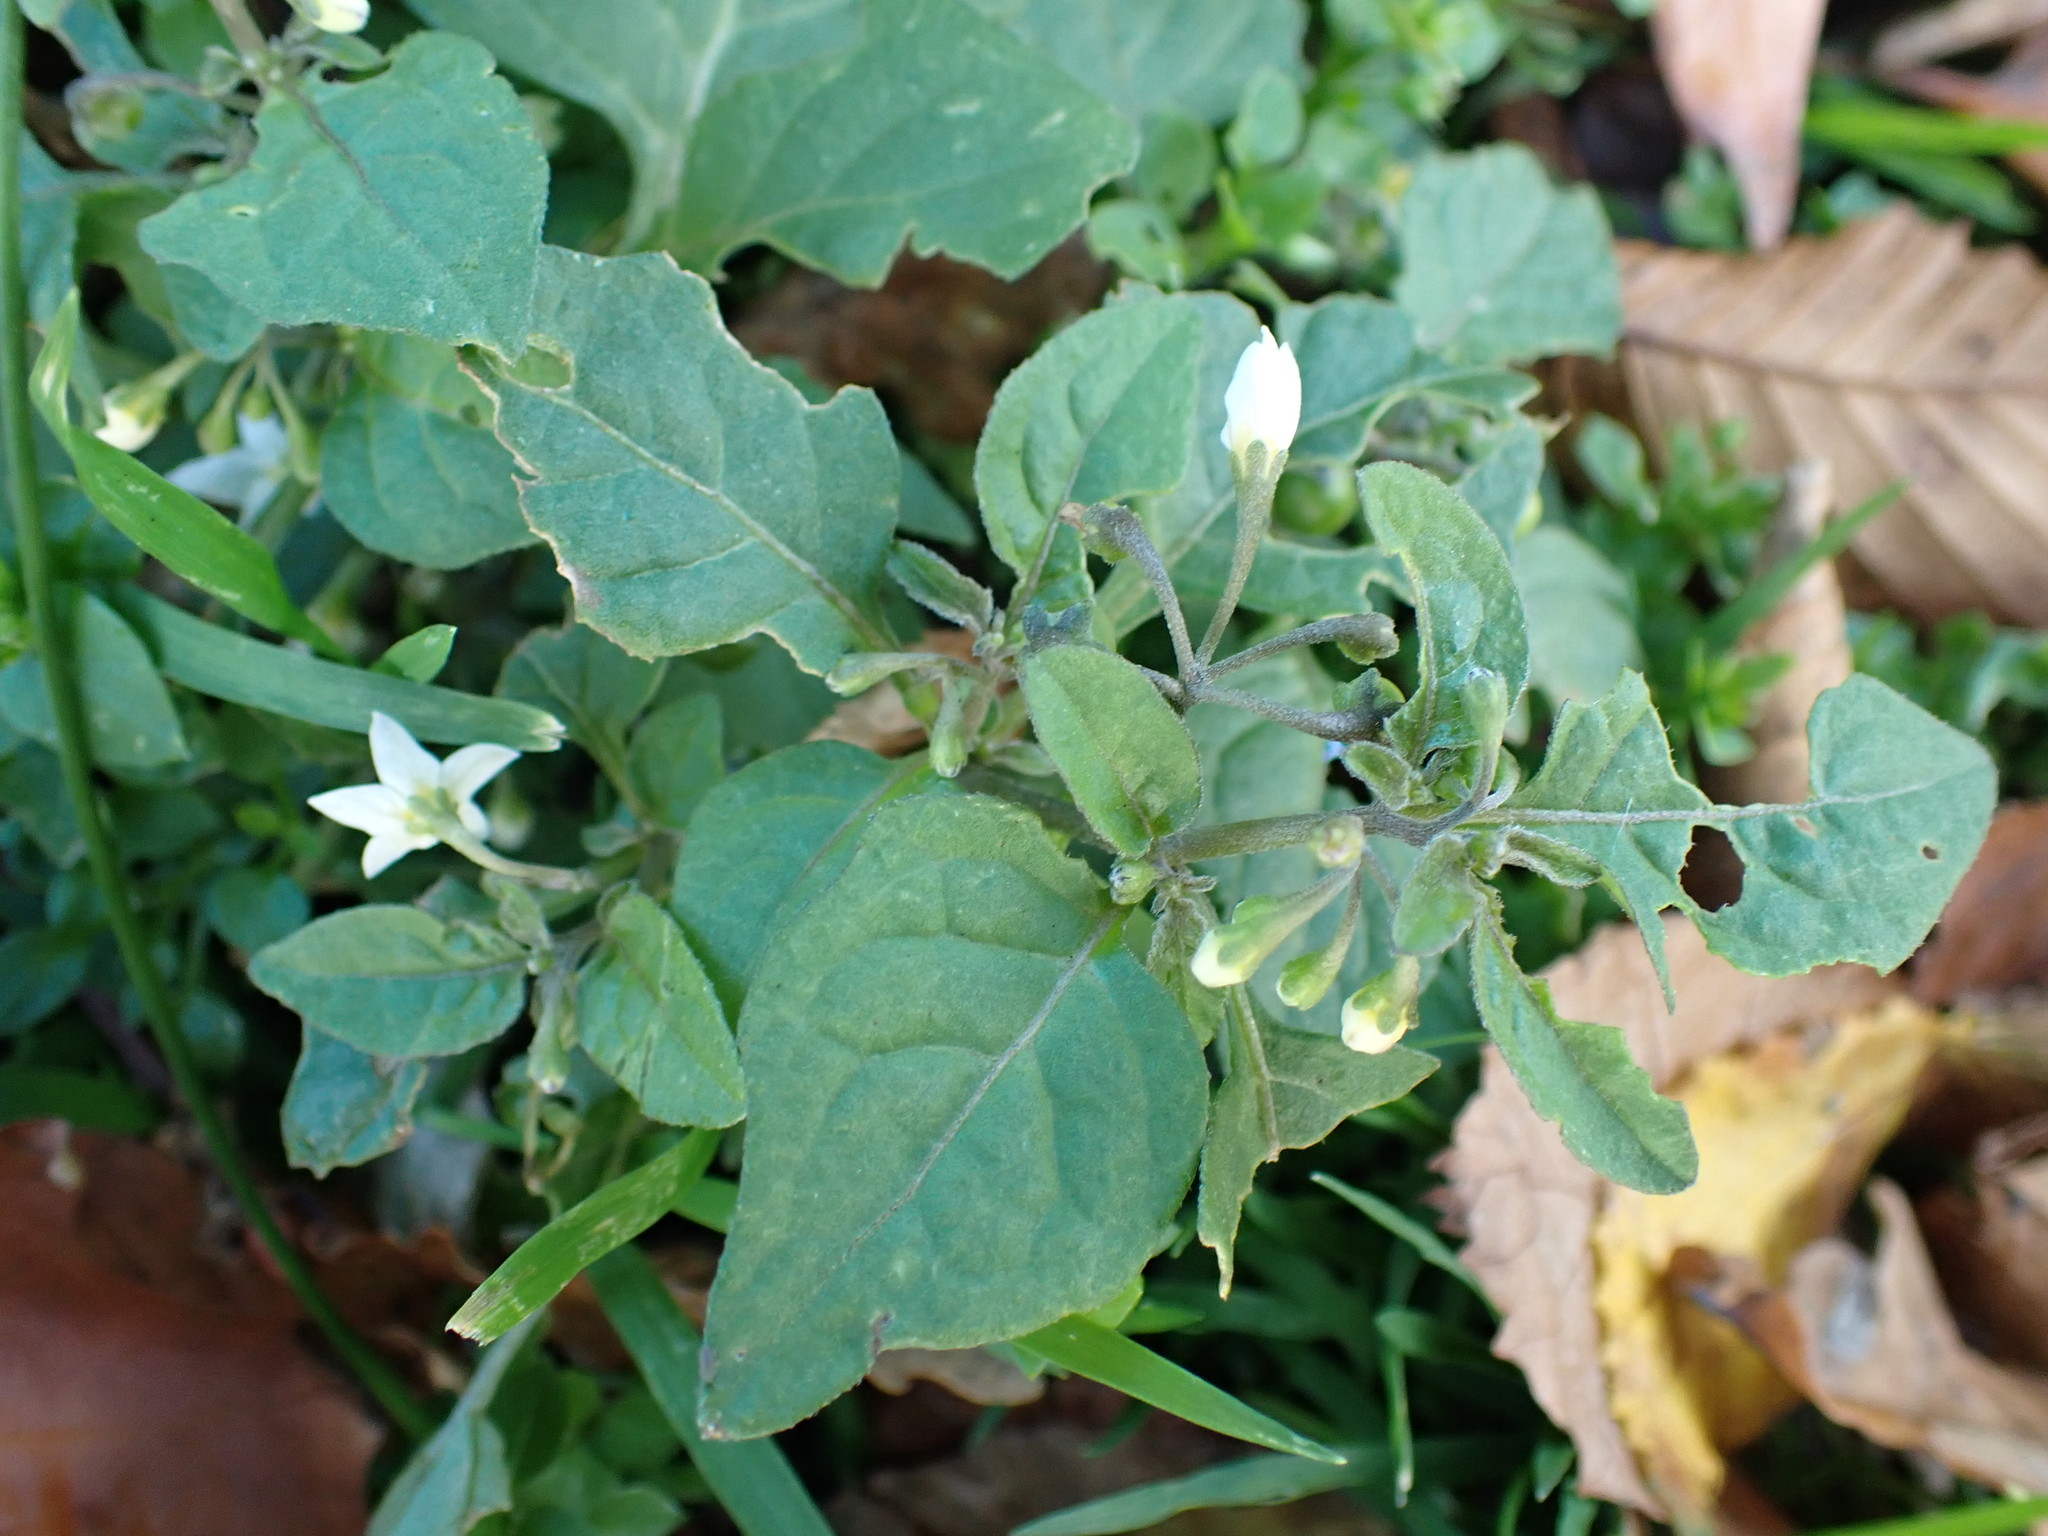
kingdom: Plantae
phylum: Tracheophyta
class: Magnoliopsida
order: Solanales
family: Solanaceae
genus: Solanum
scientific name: Solanum nigrum
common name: Black nightshade
